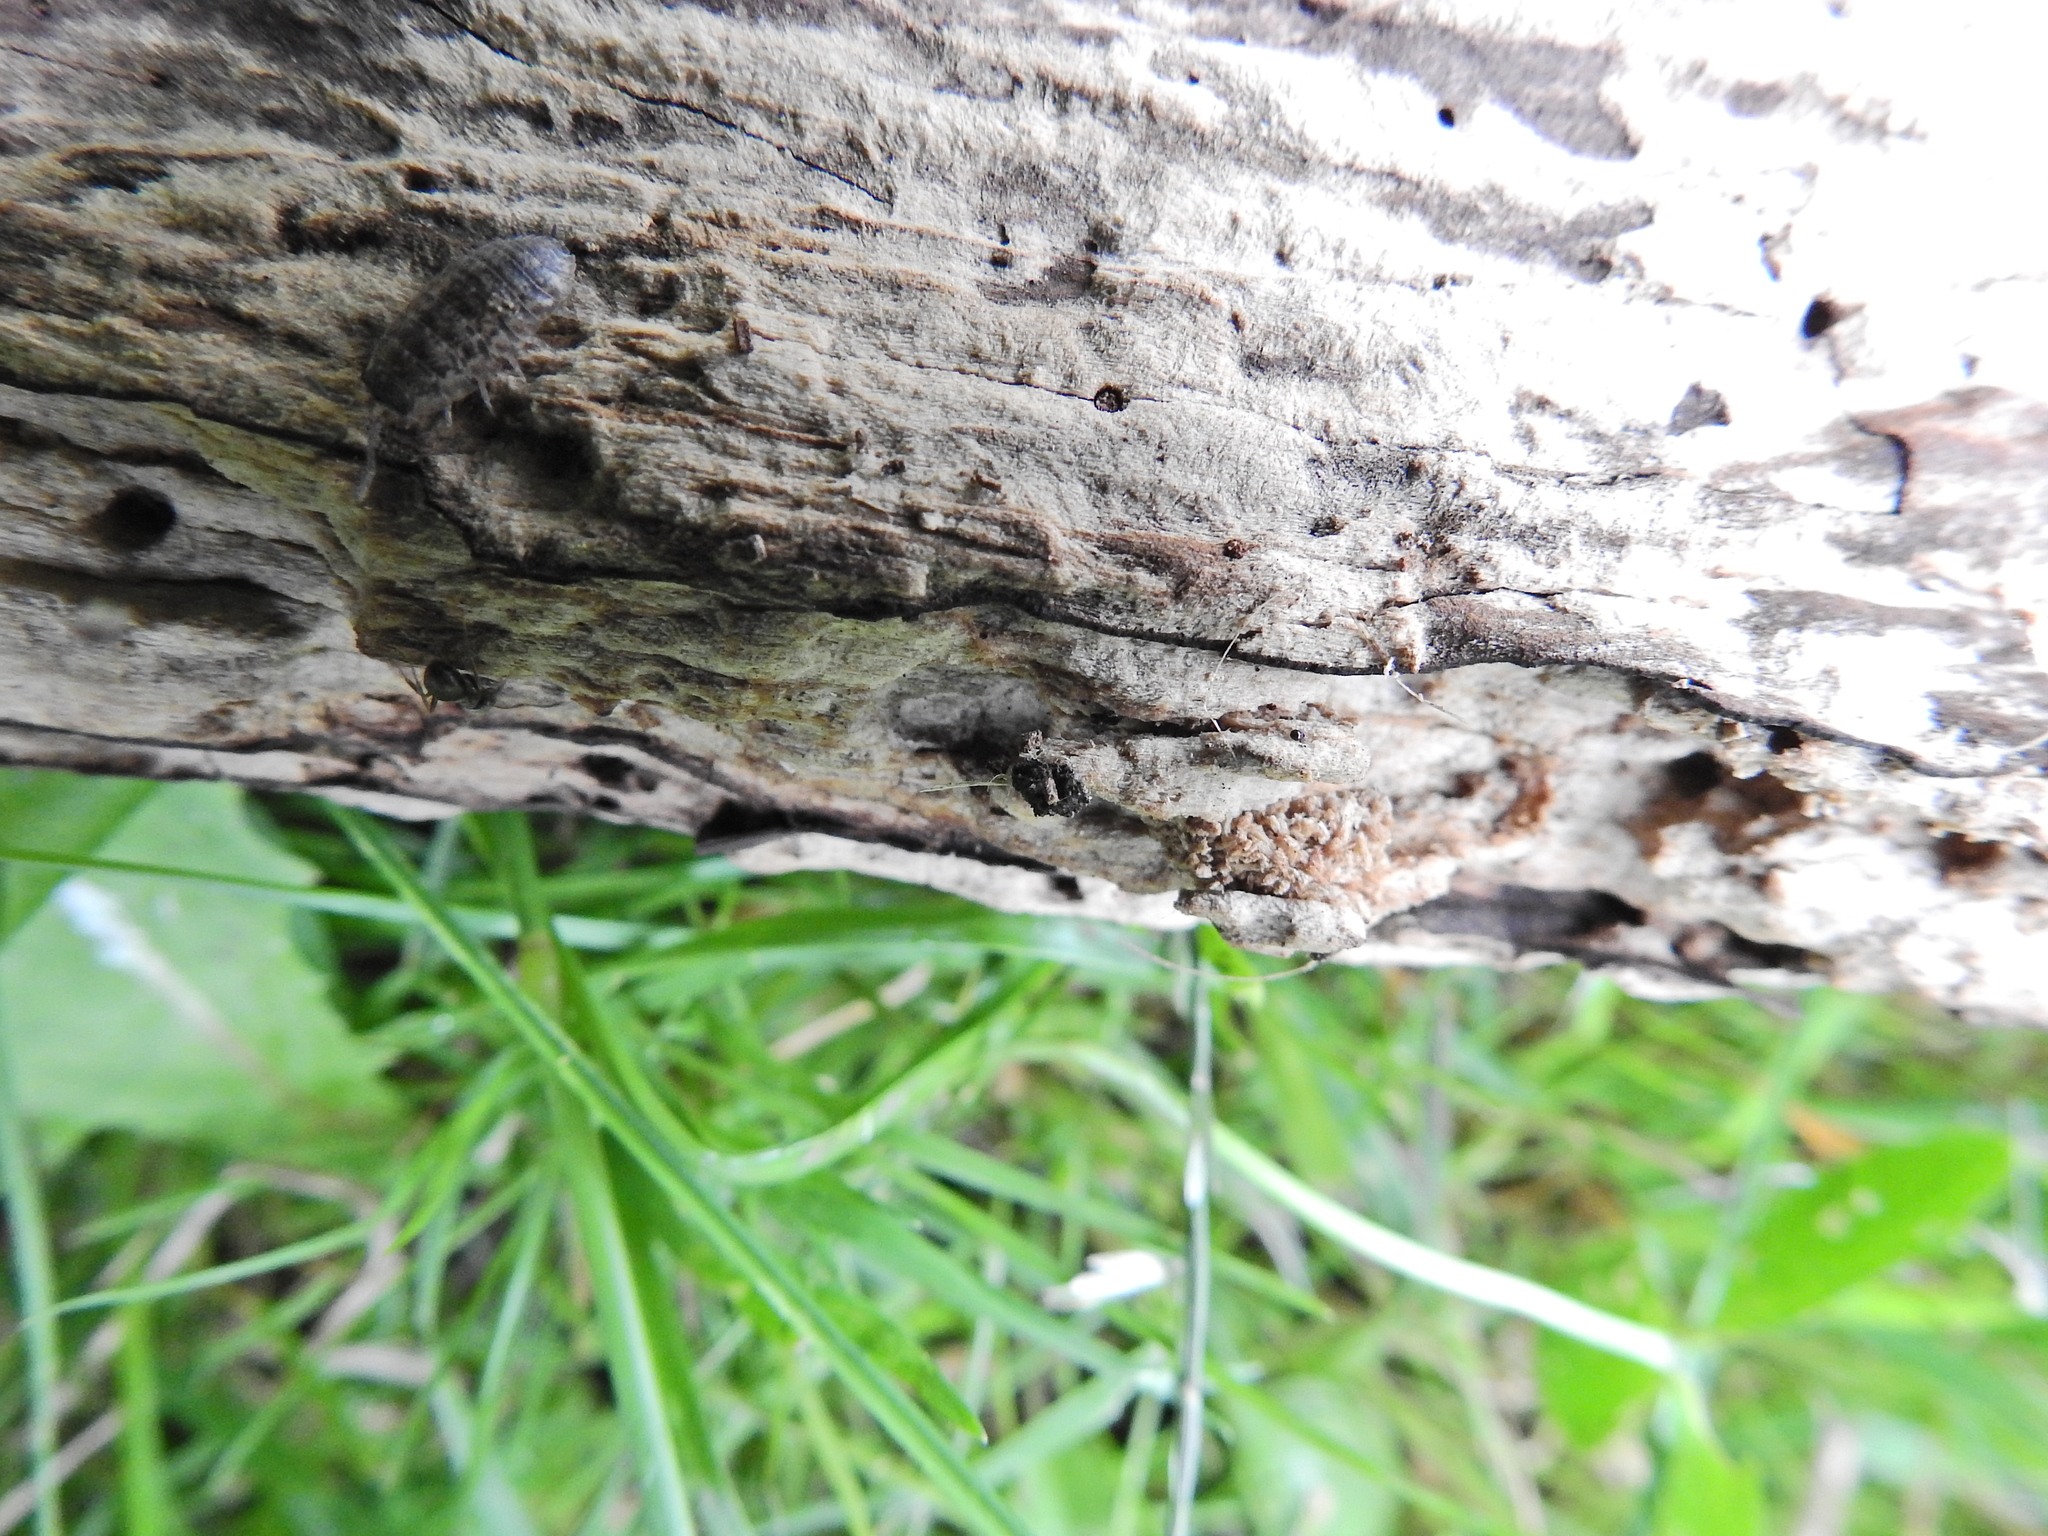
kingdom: Animalia
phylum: Arthropoda
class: Malacostraca
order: Isopoda
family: Porcellionidae
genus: Porcellio
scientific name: Porcellio scaber
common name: Common rough woodlouse
